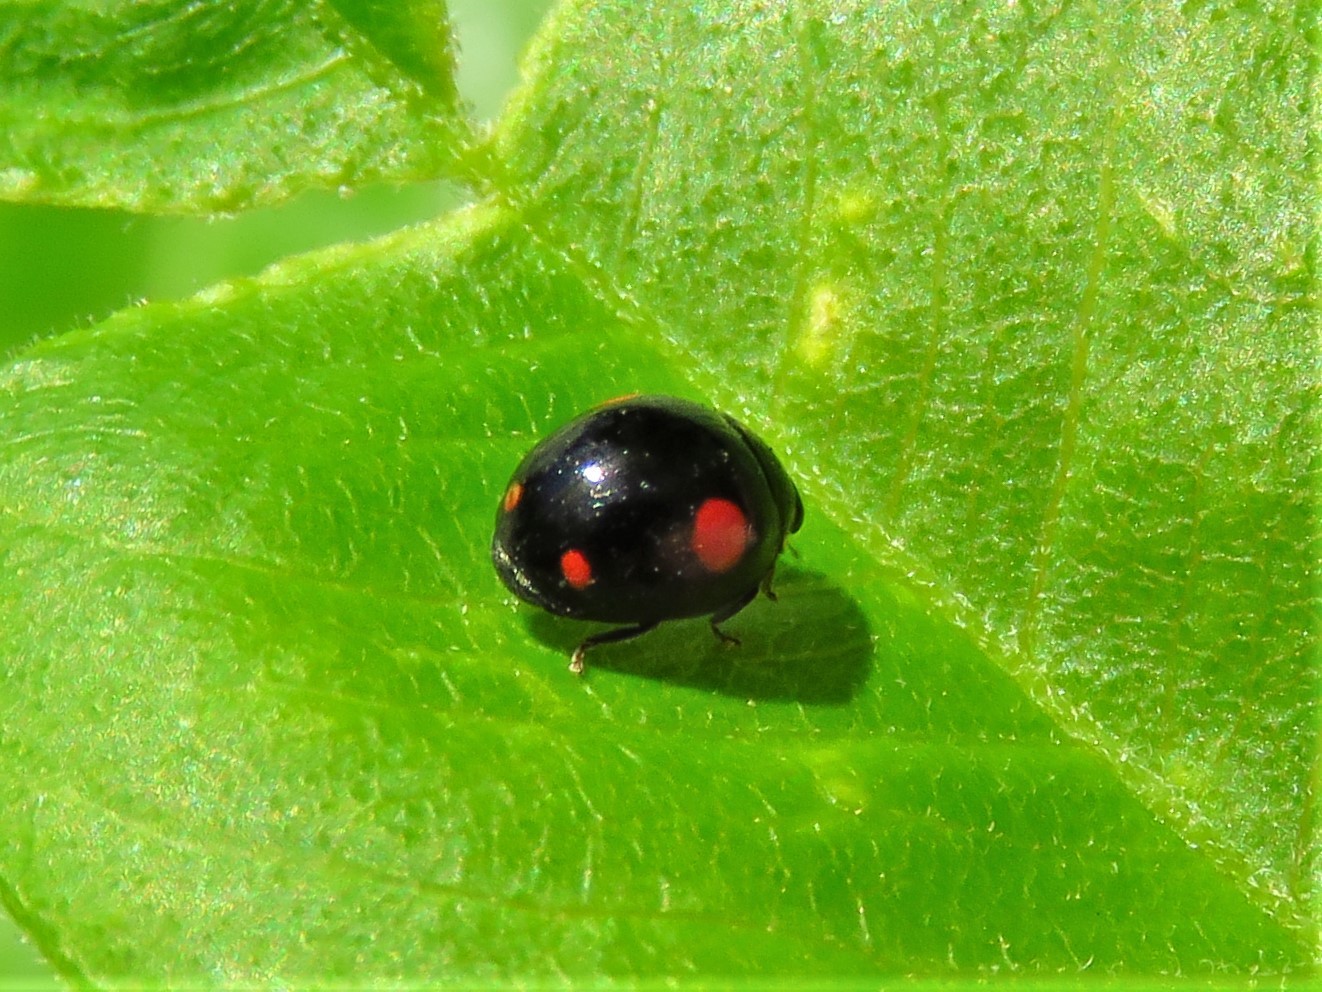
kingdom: Animalia
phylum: Arthropoda
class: Insecta
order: Coleoptera
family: Coccinellidae
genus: Hyperaspis
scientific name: Hyperaspis signata
